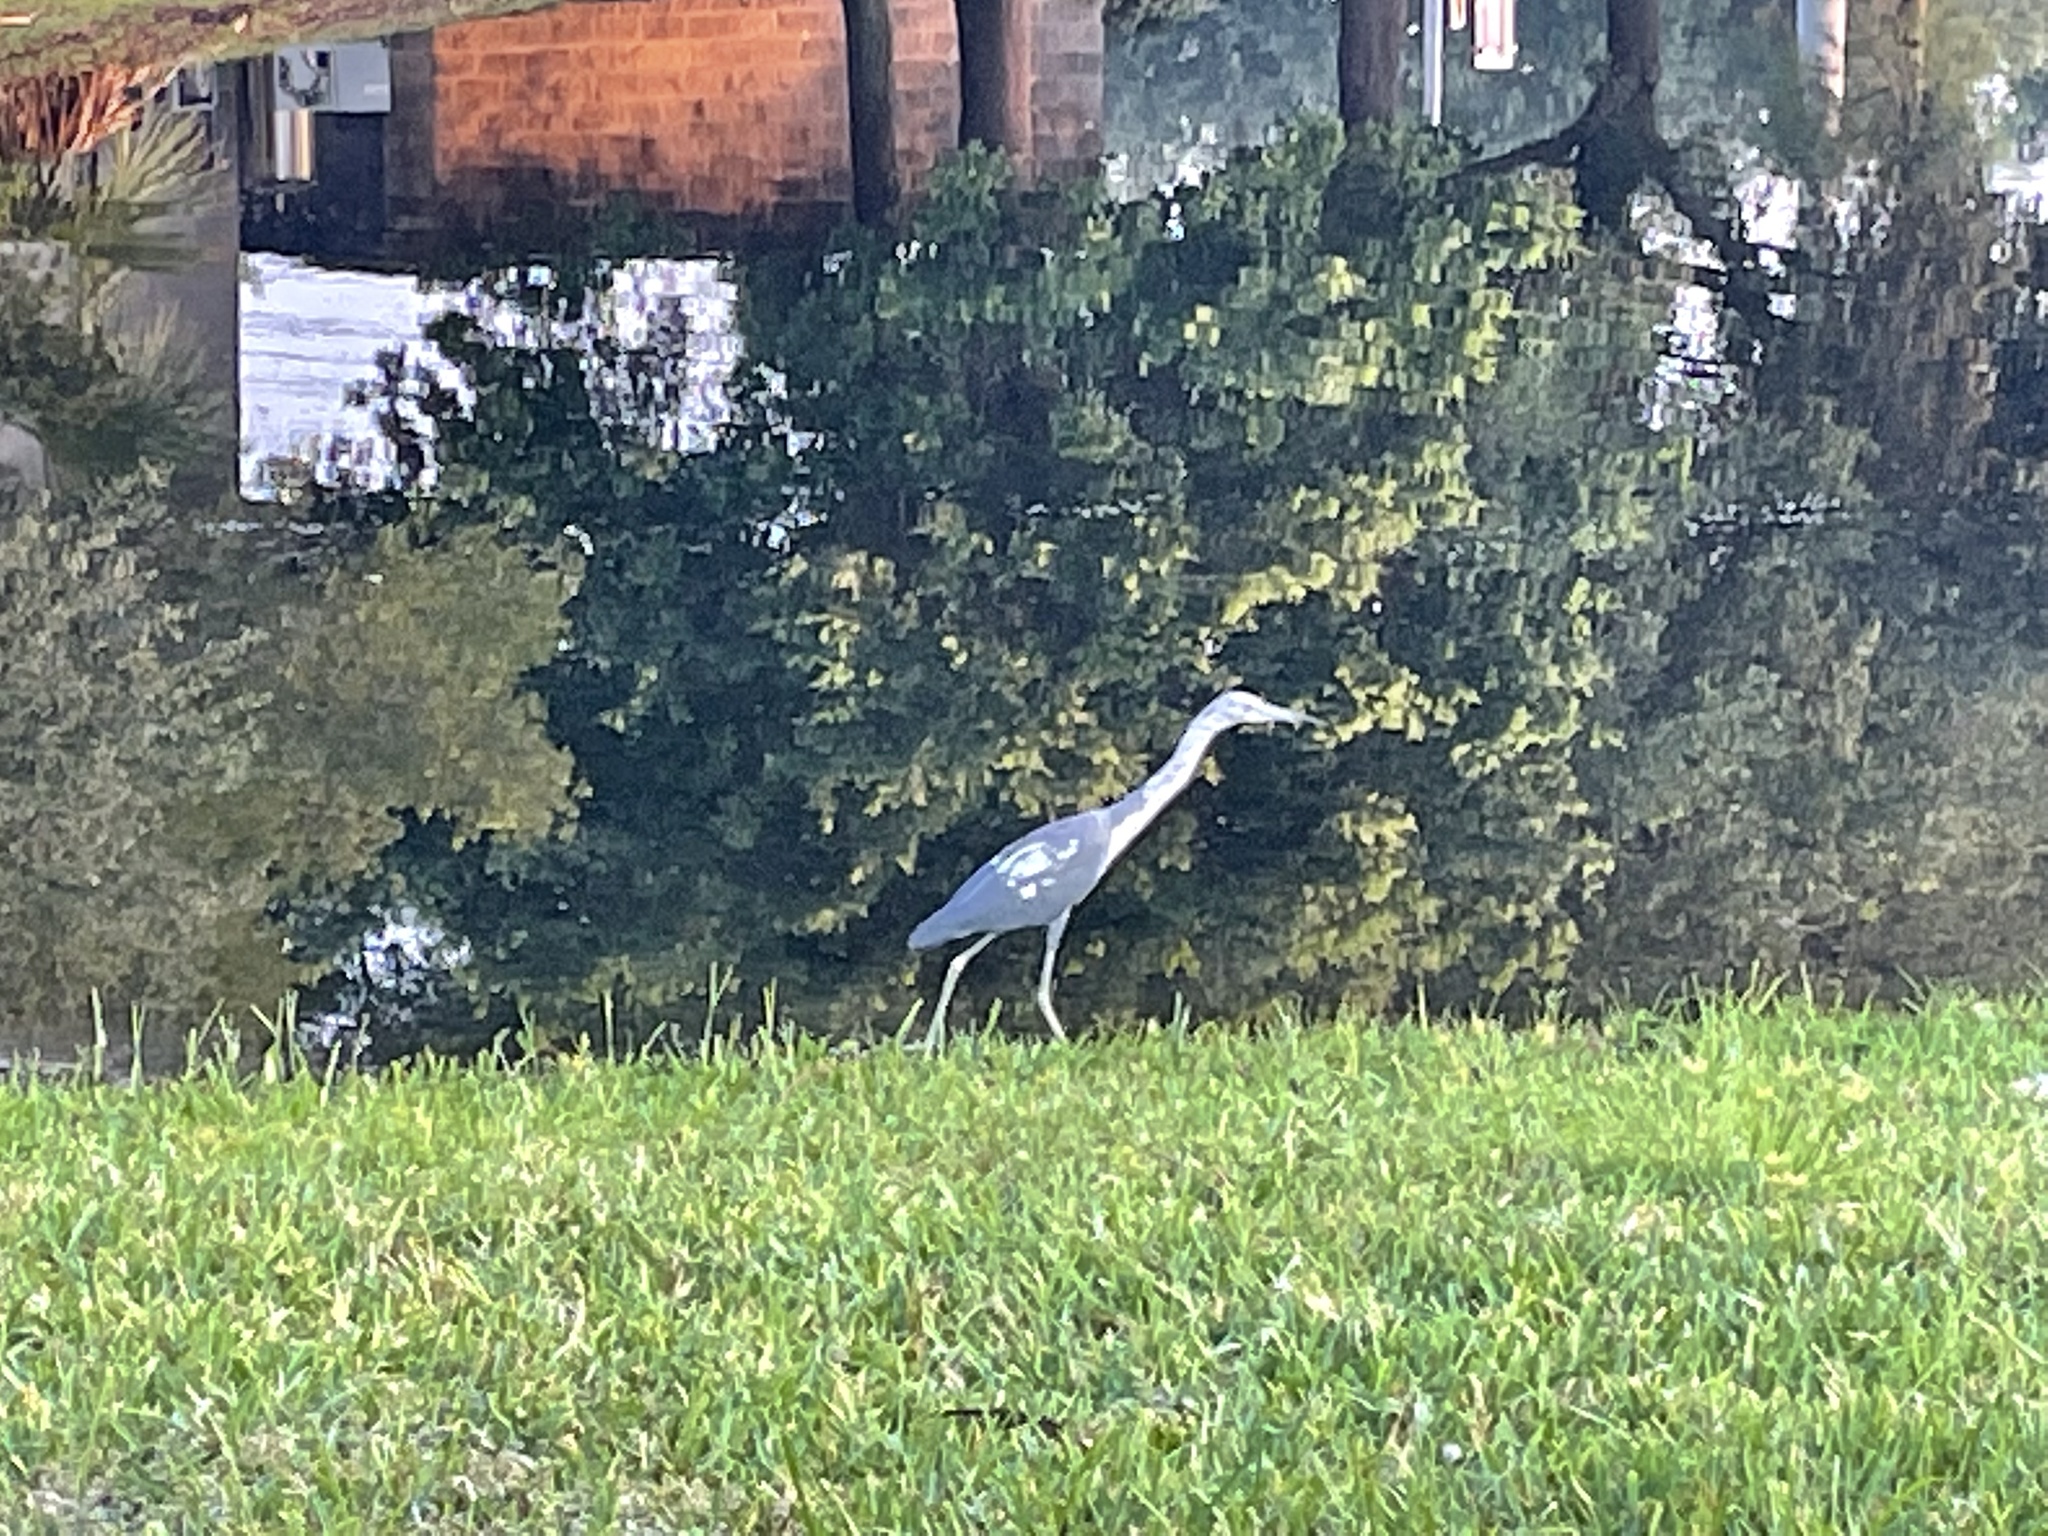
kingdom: Animalia
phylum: Chordata
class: Aves
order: Pelecaniformes
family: Ardeidae
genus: Egretta
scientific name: Egretta caerulea
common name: Little blue heron
